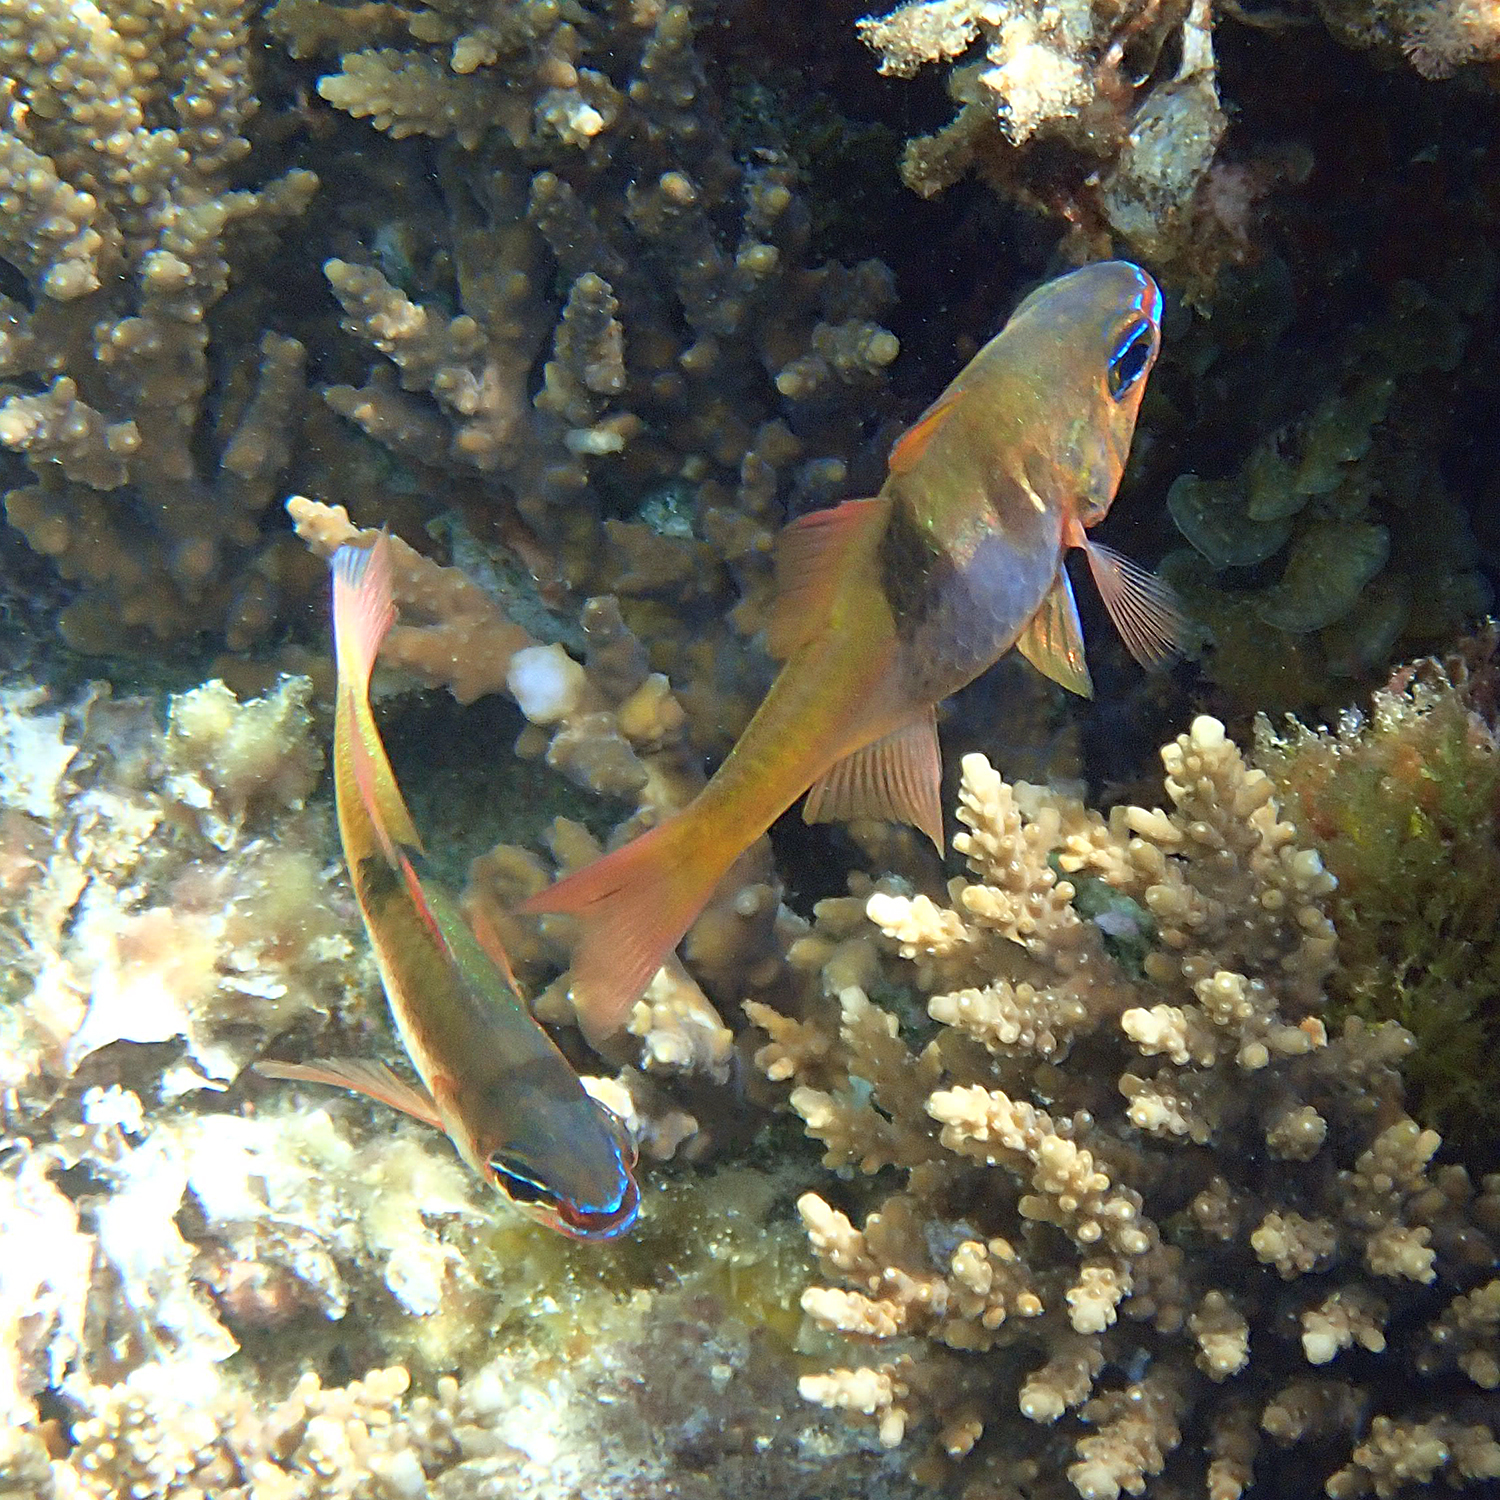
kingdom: Animalia
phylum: Chordata
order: Perciformes
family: Apogonidae
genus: Taeniamia
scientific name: Taeniamia leai
